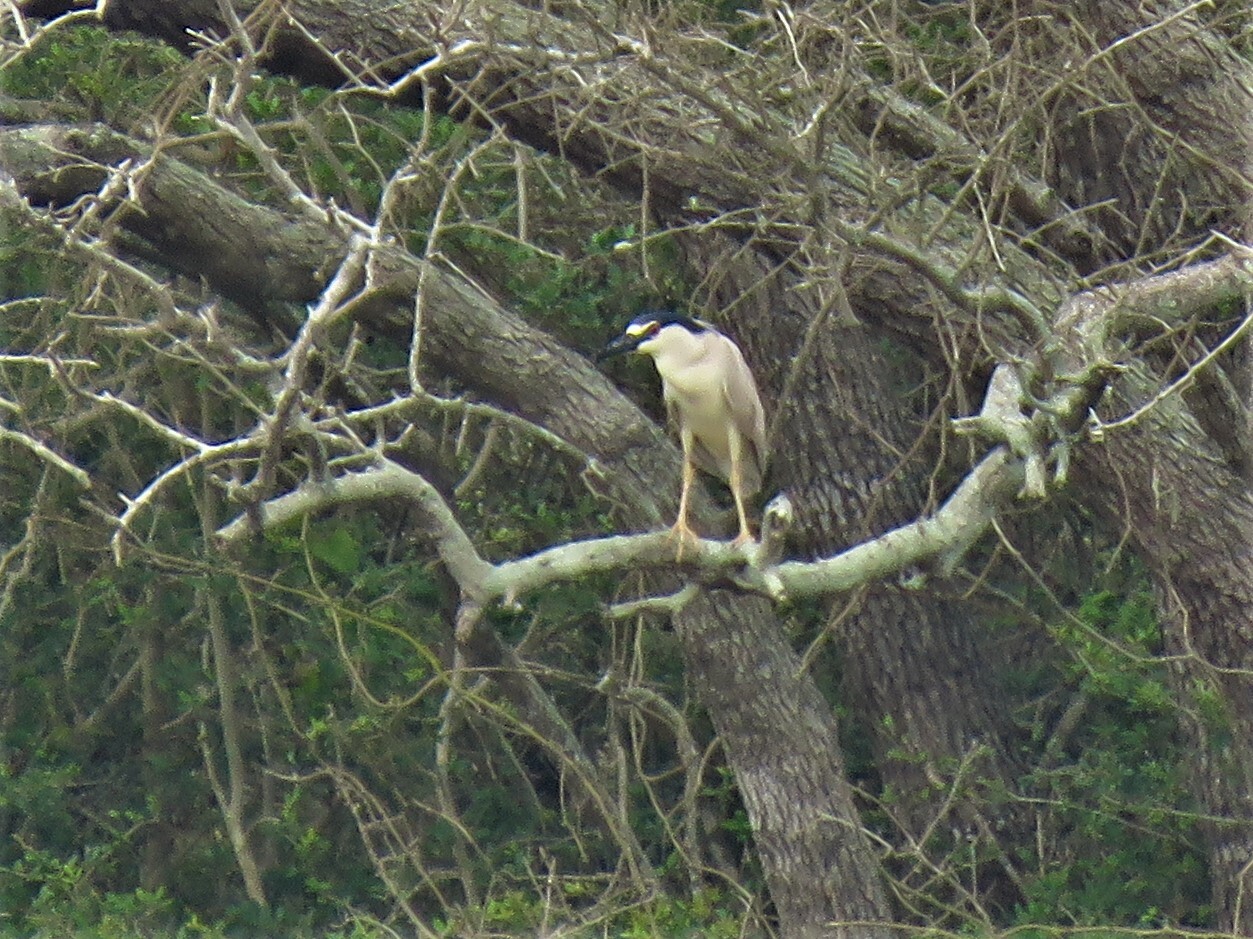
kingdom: Animalia
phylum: Chordata
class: Aves
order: Pelecaniformes
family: Ardeidae
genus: Nycticorax
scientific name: Nycticorax nycticorax
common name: Black-crowned night heron
